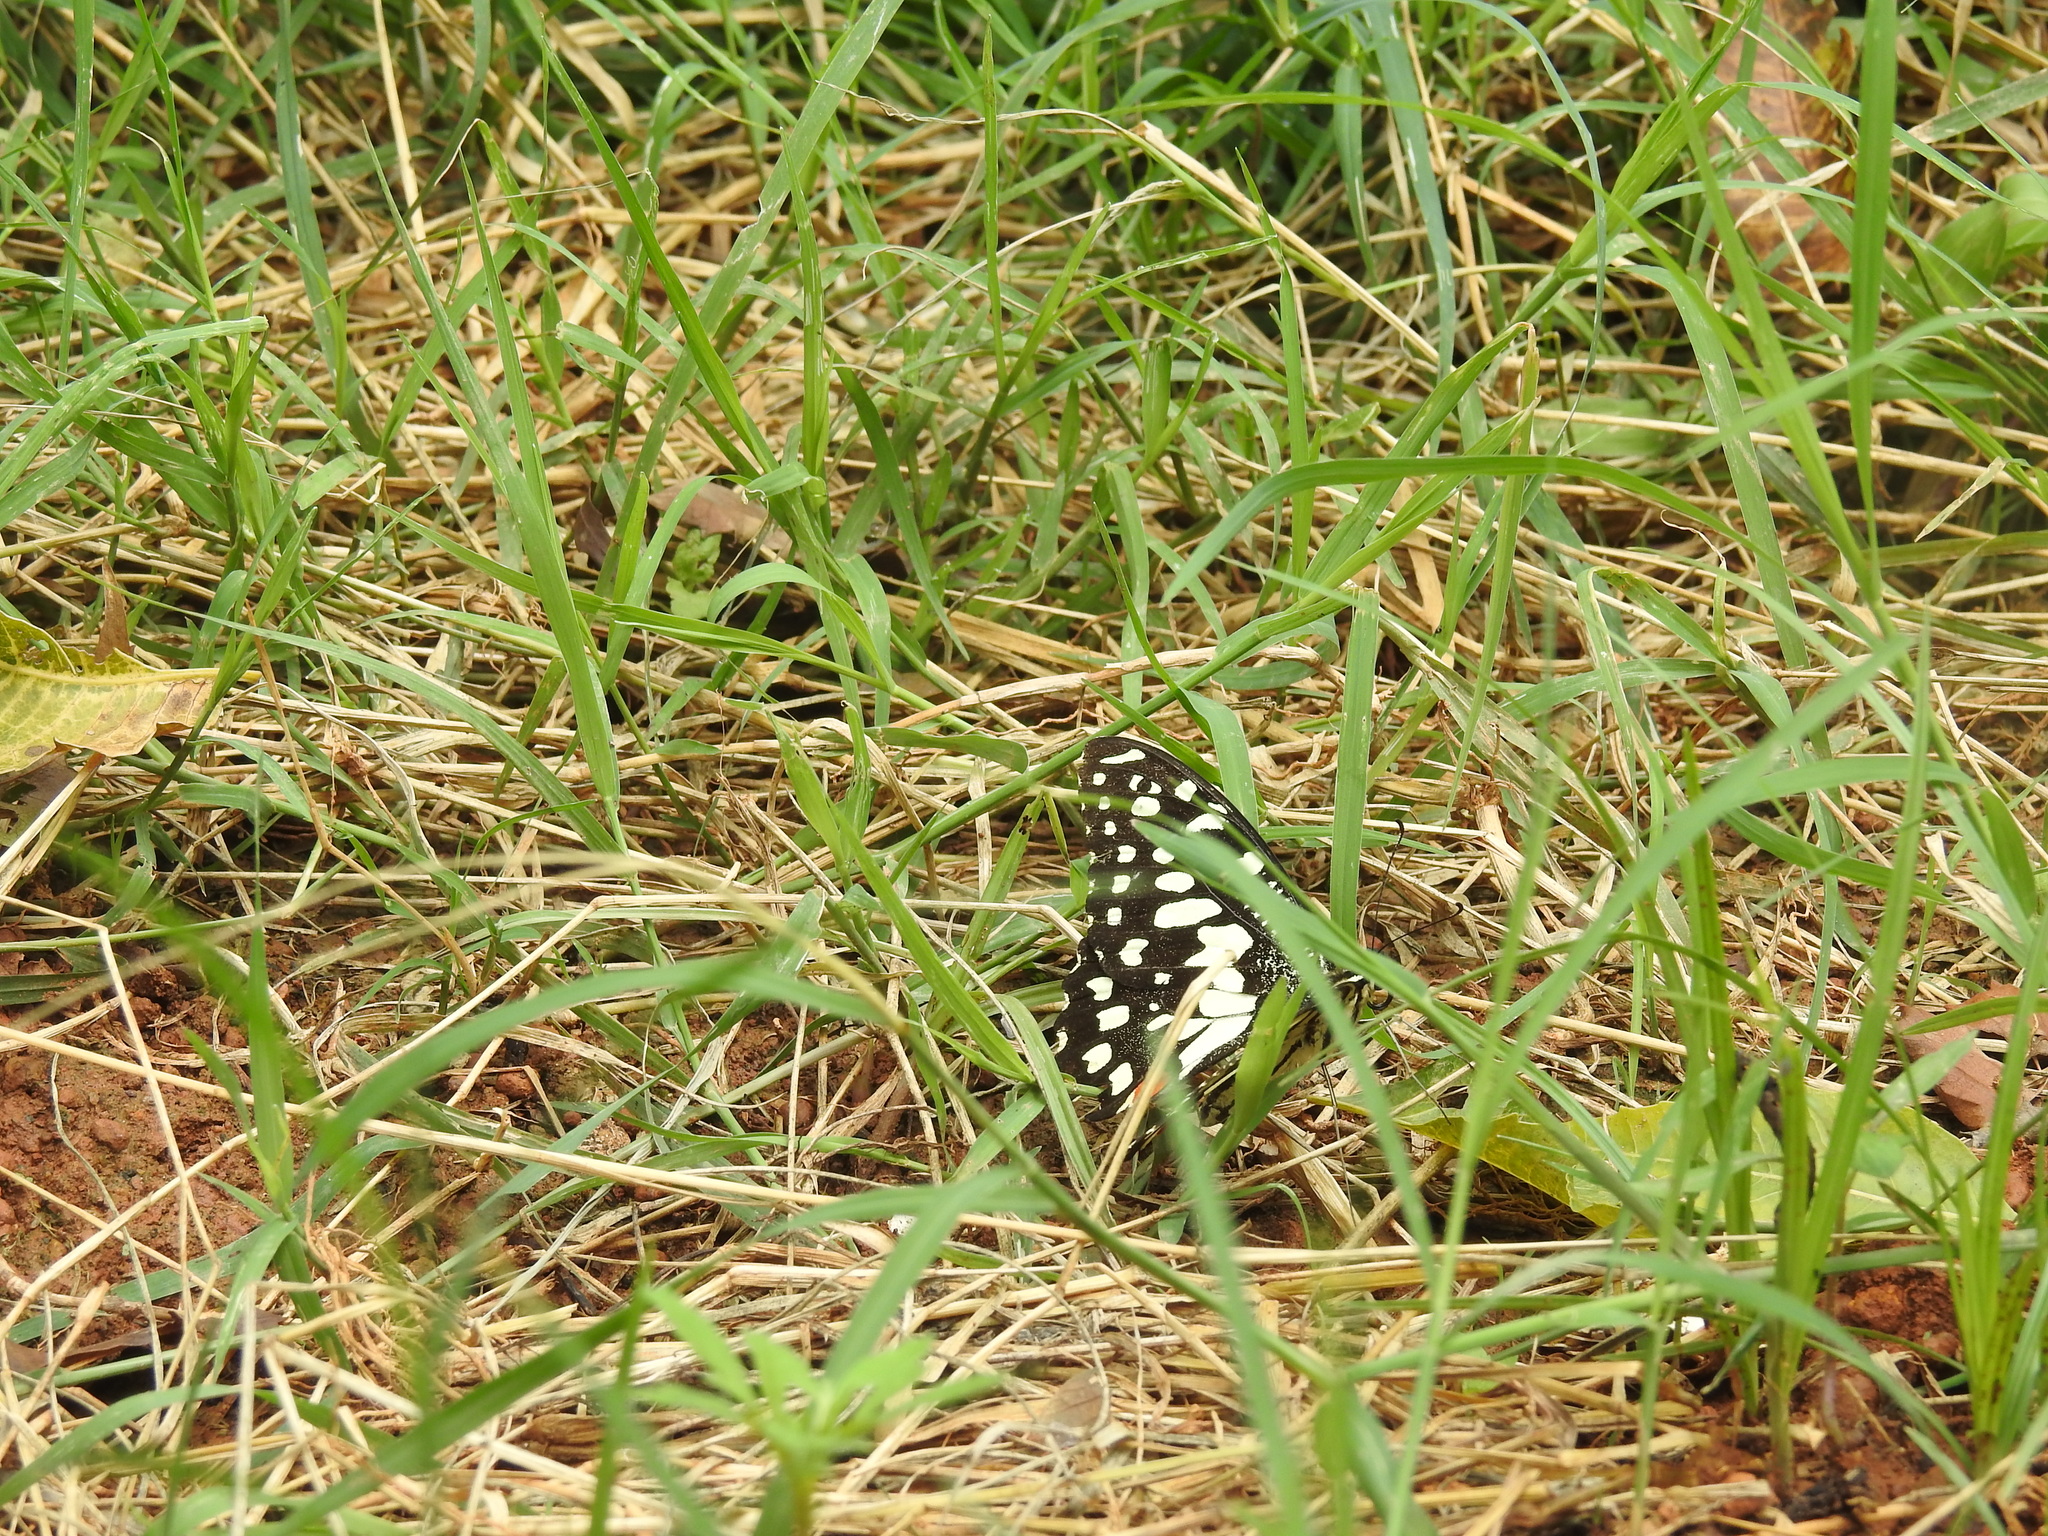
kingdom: Animalia
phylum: Arthropoda
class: Insecta
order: Lepidoptera
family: Papilionidae
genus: Papilio
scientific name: Papilio demoleus
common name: Lime butterfly
